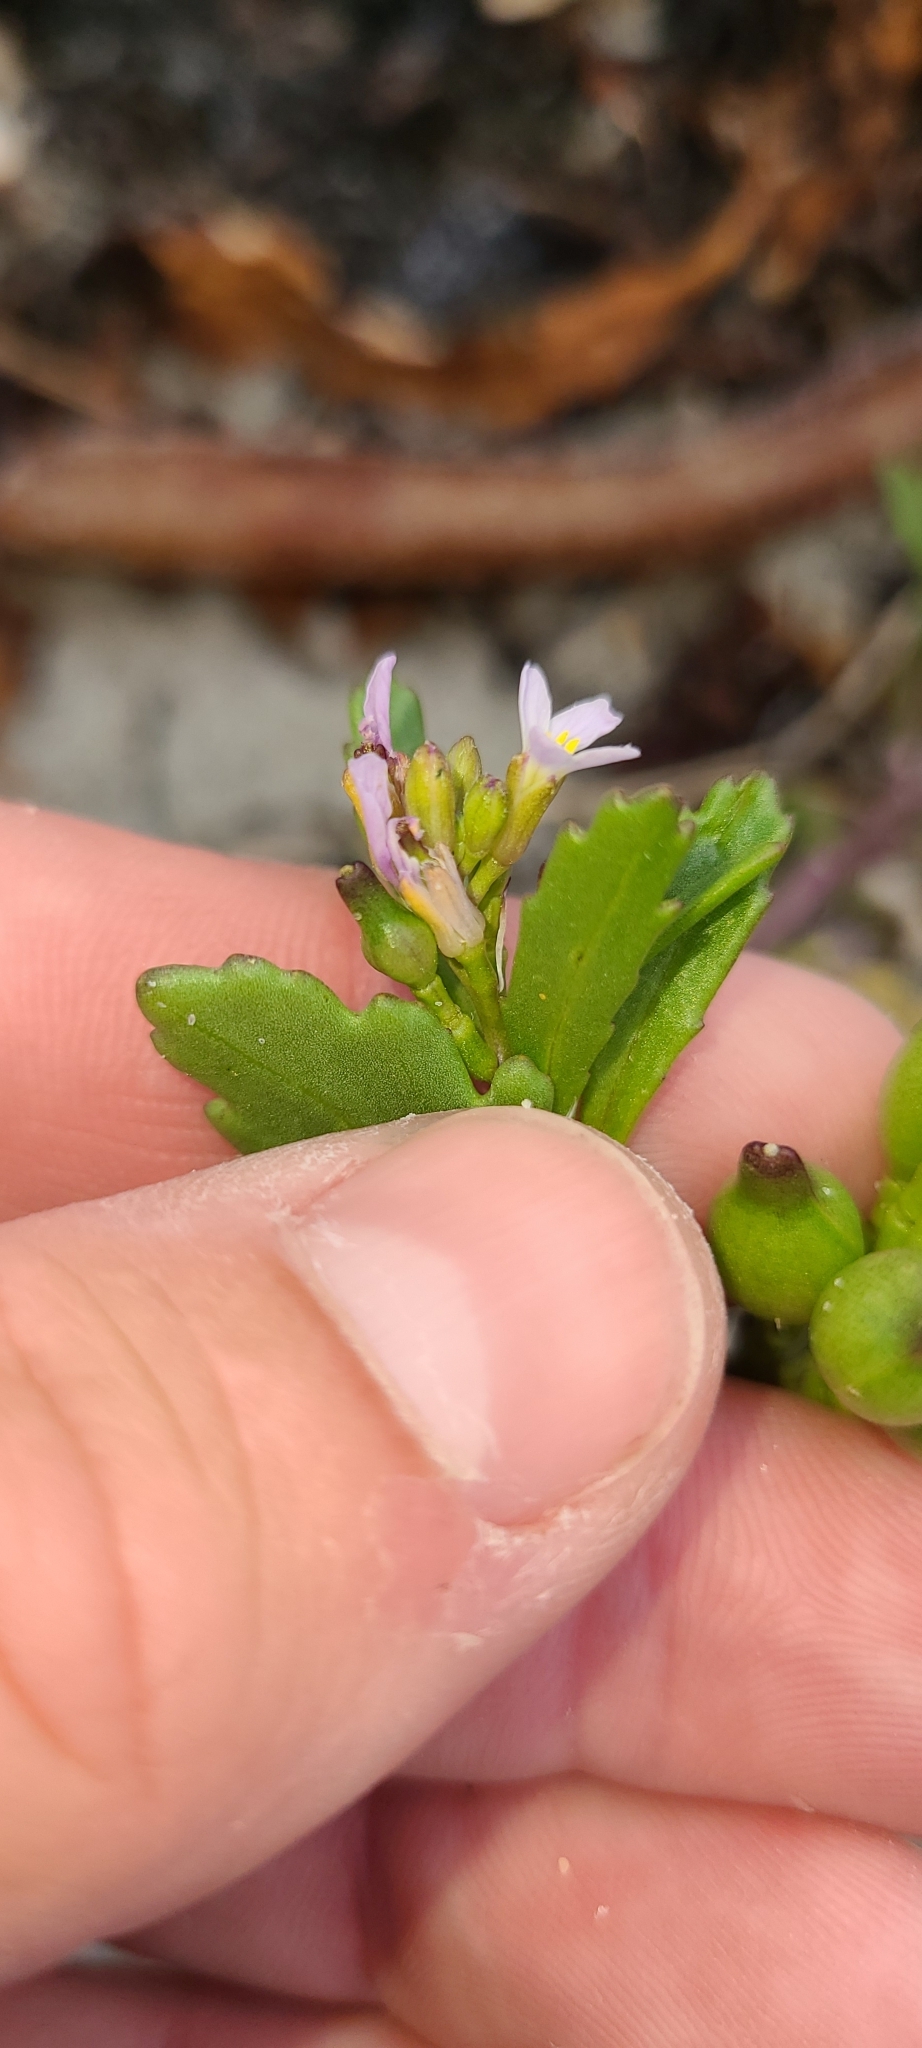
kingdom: Plantae
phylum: Tracheophyta
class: Magnoliopsida
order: Brassicales
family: Brassicaceae
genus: Cakile
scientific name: Cakile edentula
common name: American sea rocket
